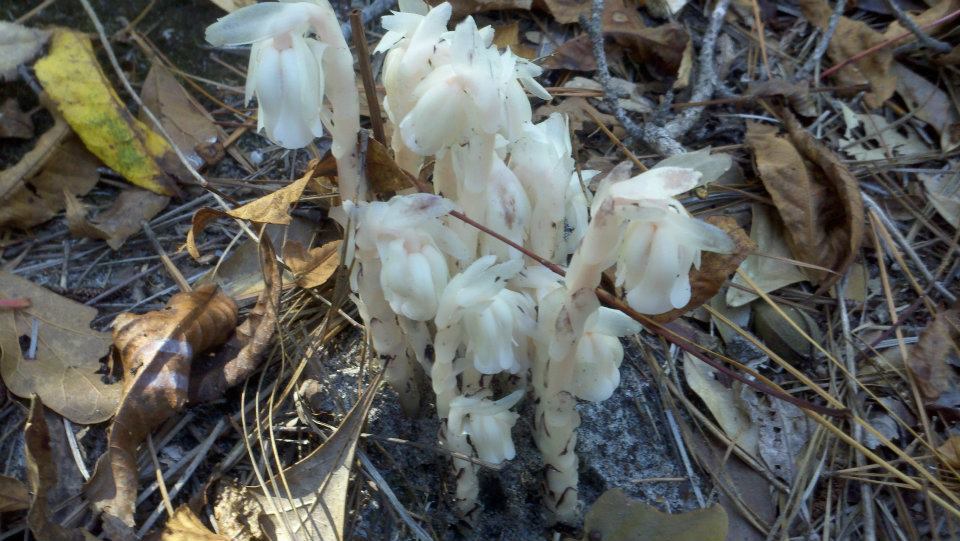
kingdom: Plantae
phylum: Tracheophyta
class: Magnoliopsida
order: Ericales
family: Ericaceae
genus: Monotropa
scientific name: Monotropa uniflora
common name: Convulsion root
